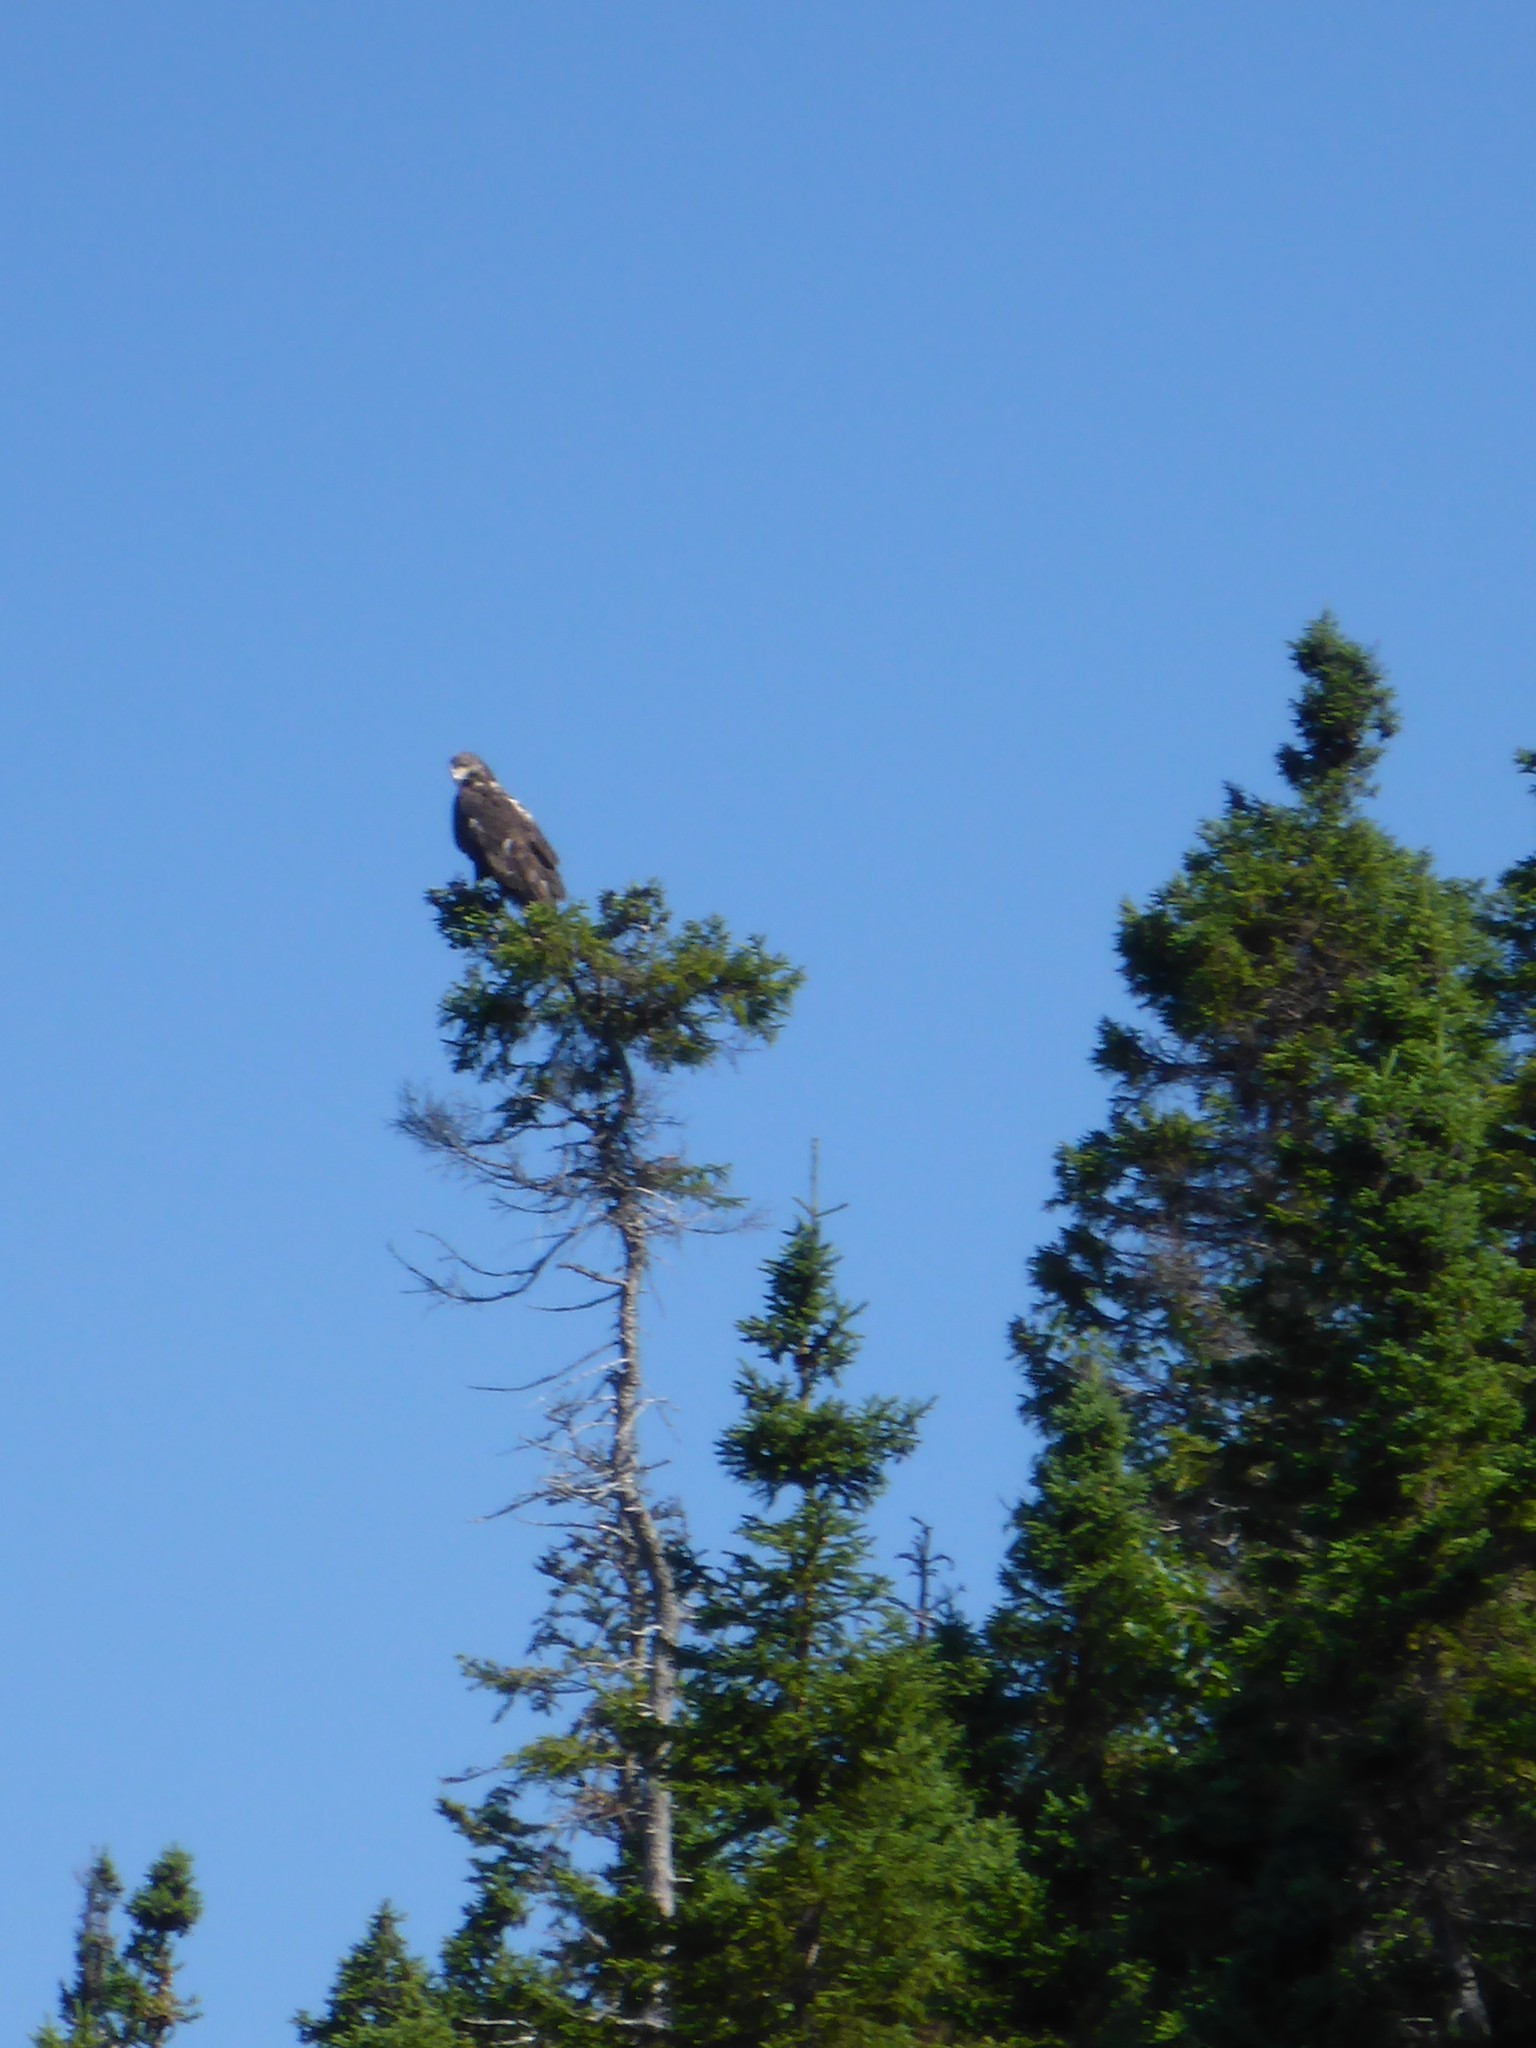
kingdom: Animalia
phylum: Chordata
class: Aves
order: Accipitriformes
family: Accipitridae
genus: Haliaeetus
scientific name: Haliaeetus leucocephalus
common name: Bald eagle
